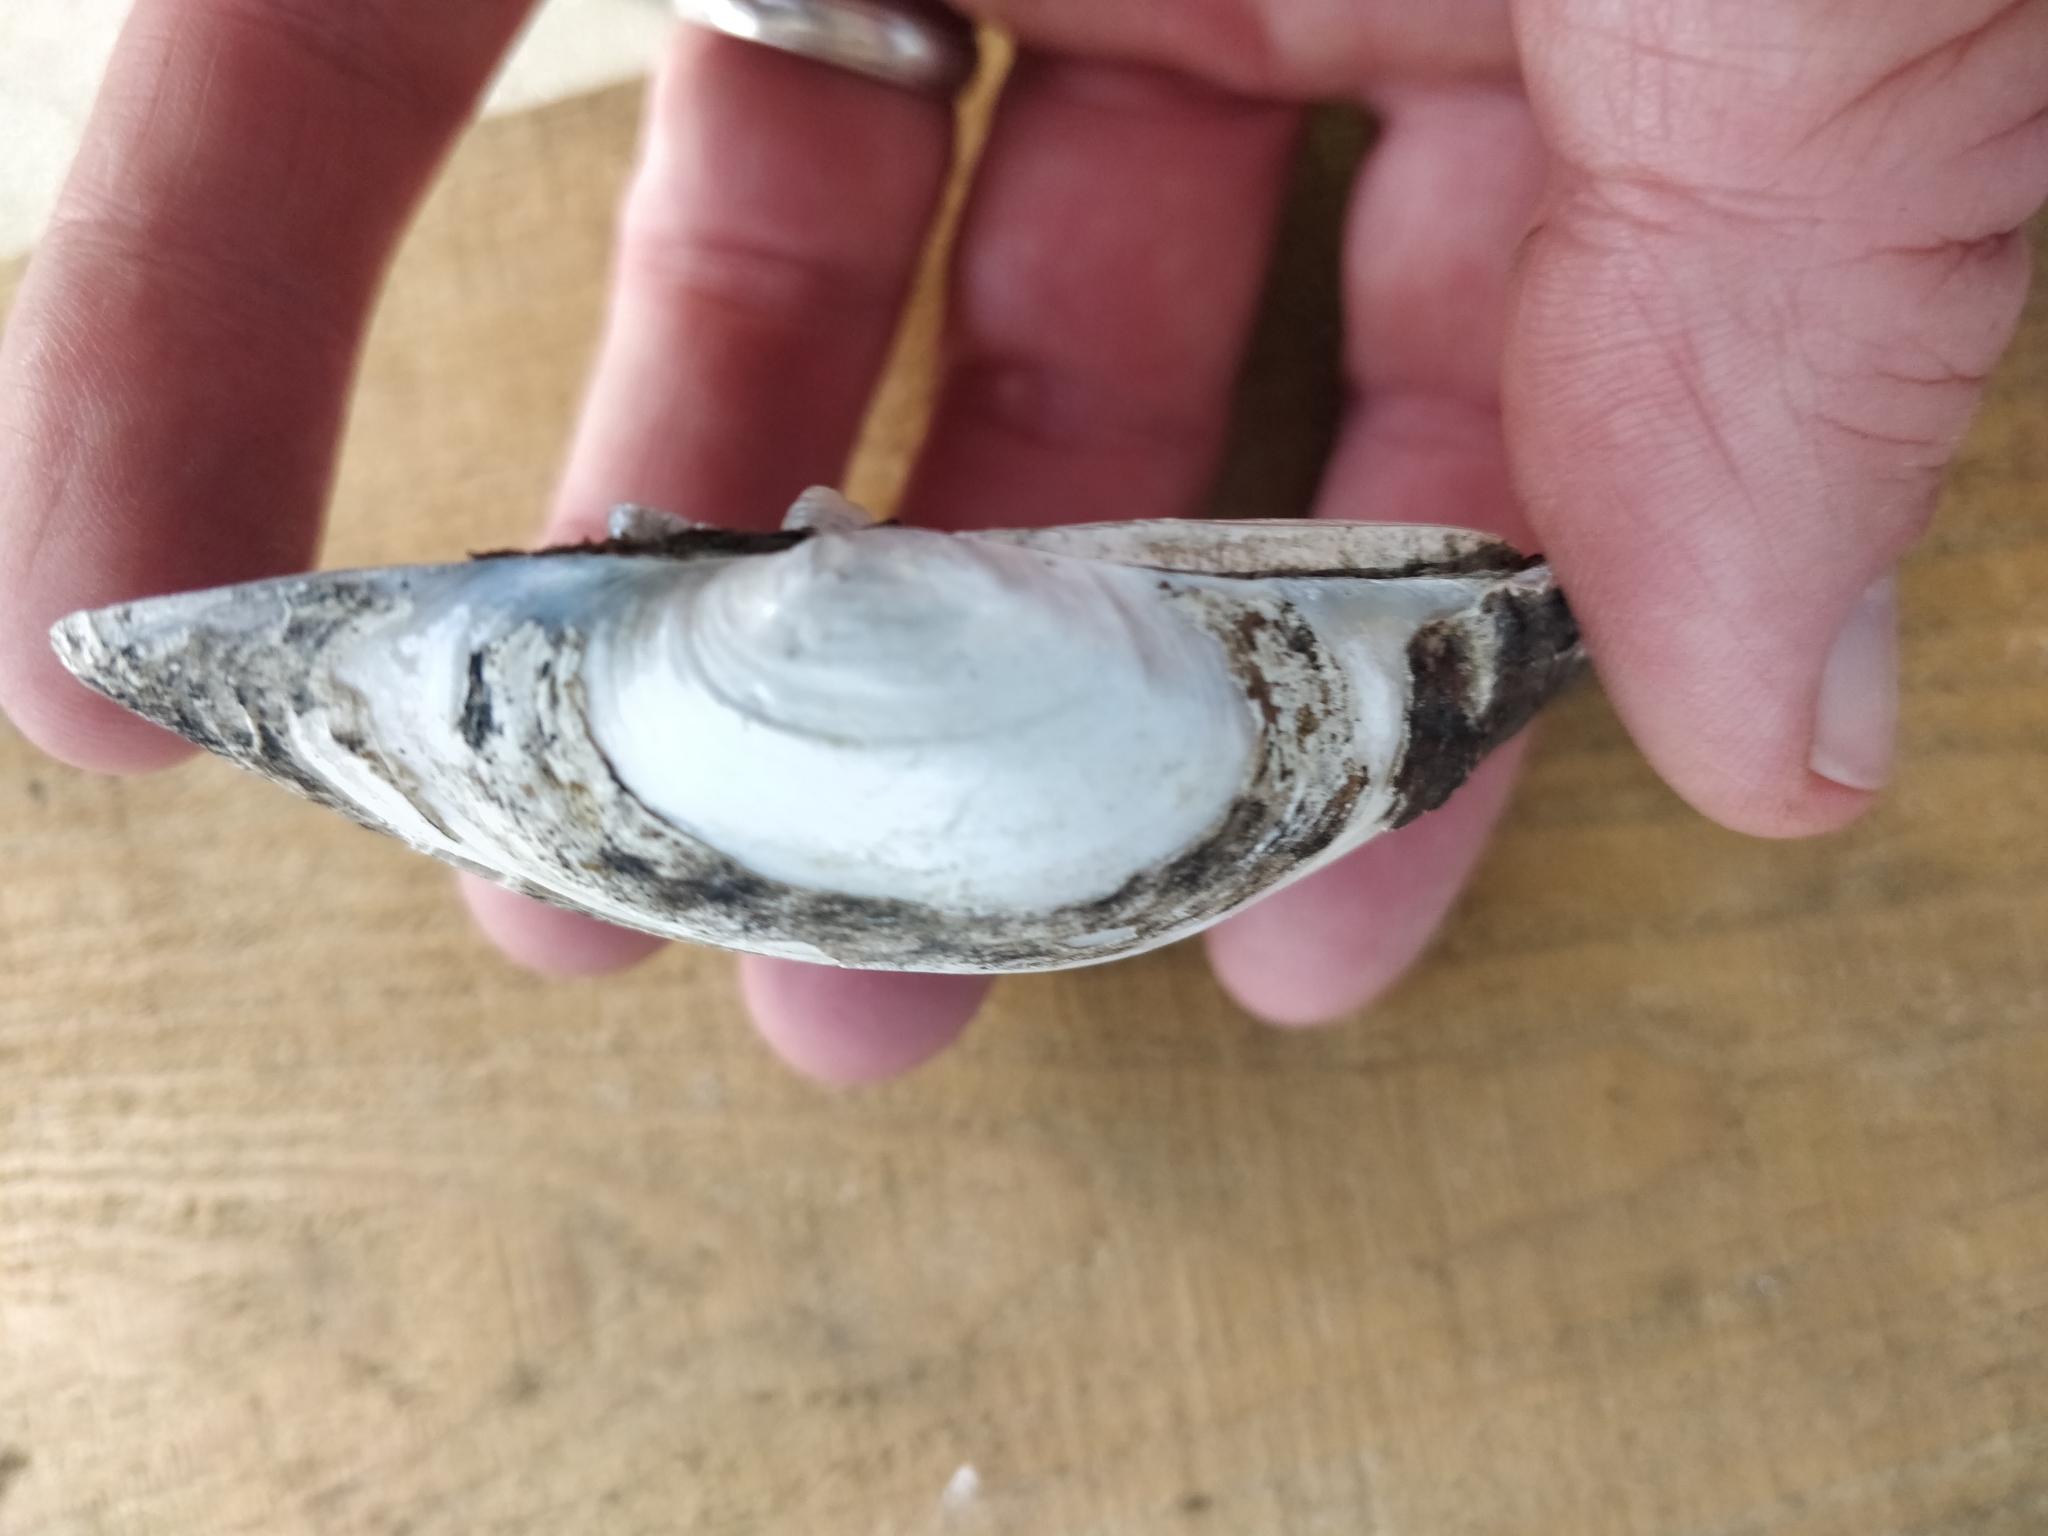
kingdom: Animalia
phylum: Mollusca
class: Bivalvia
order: Unionida
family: Unionidae
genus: Lampsilis
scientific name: Lampsilis cardium
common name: Plain pocketbook
